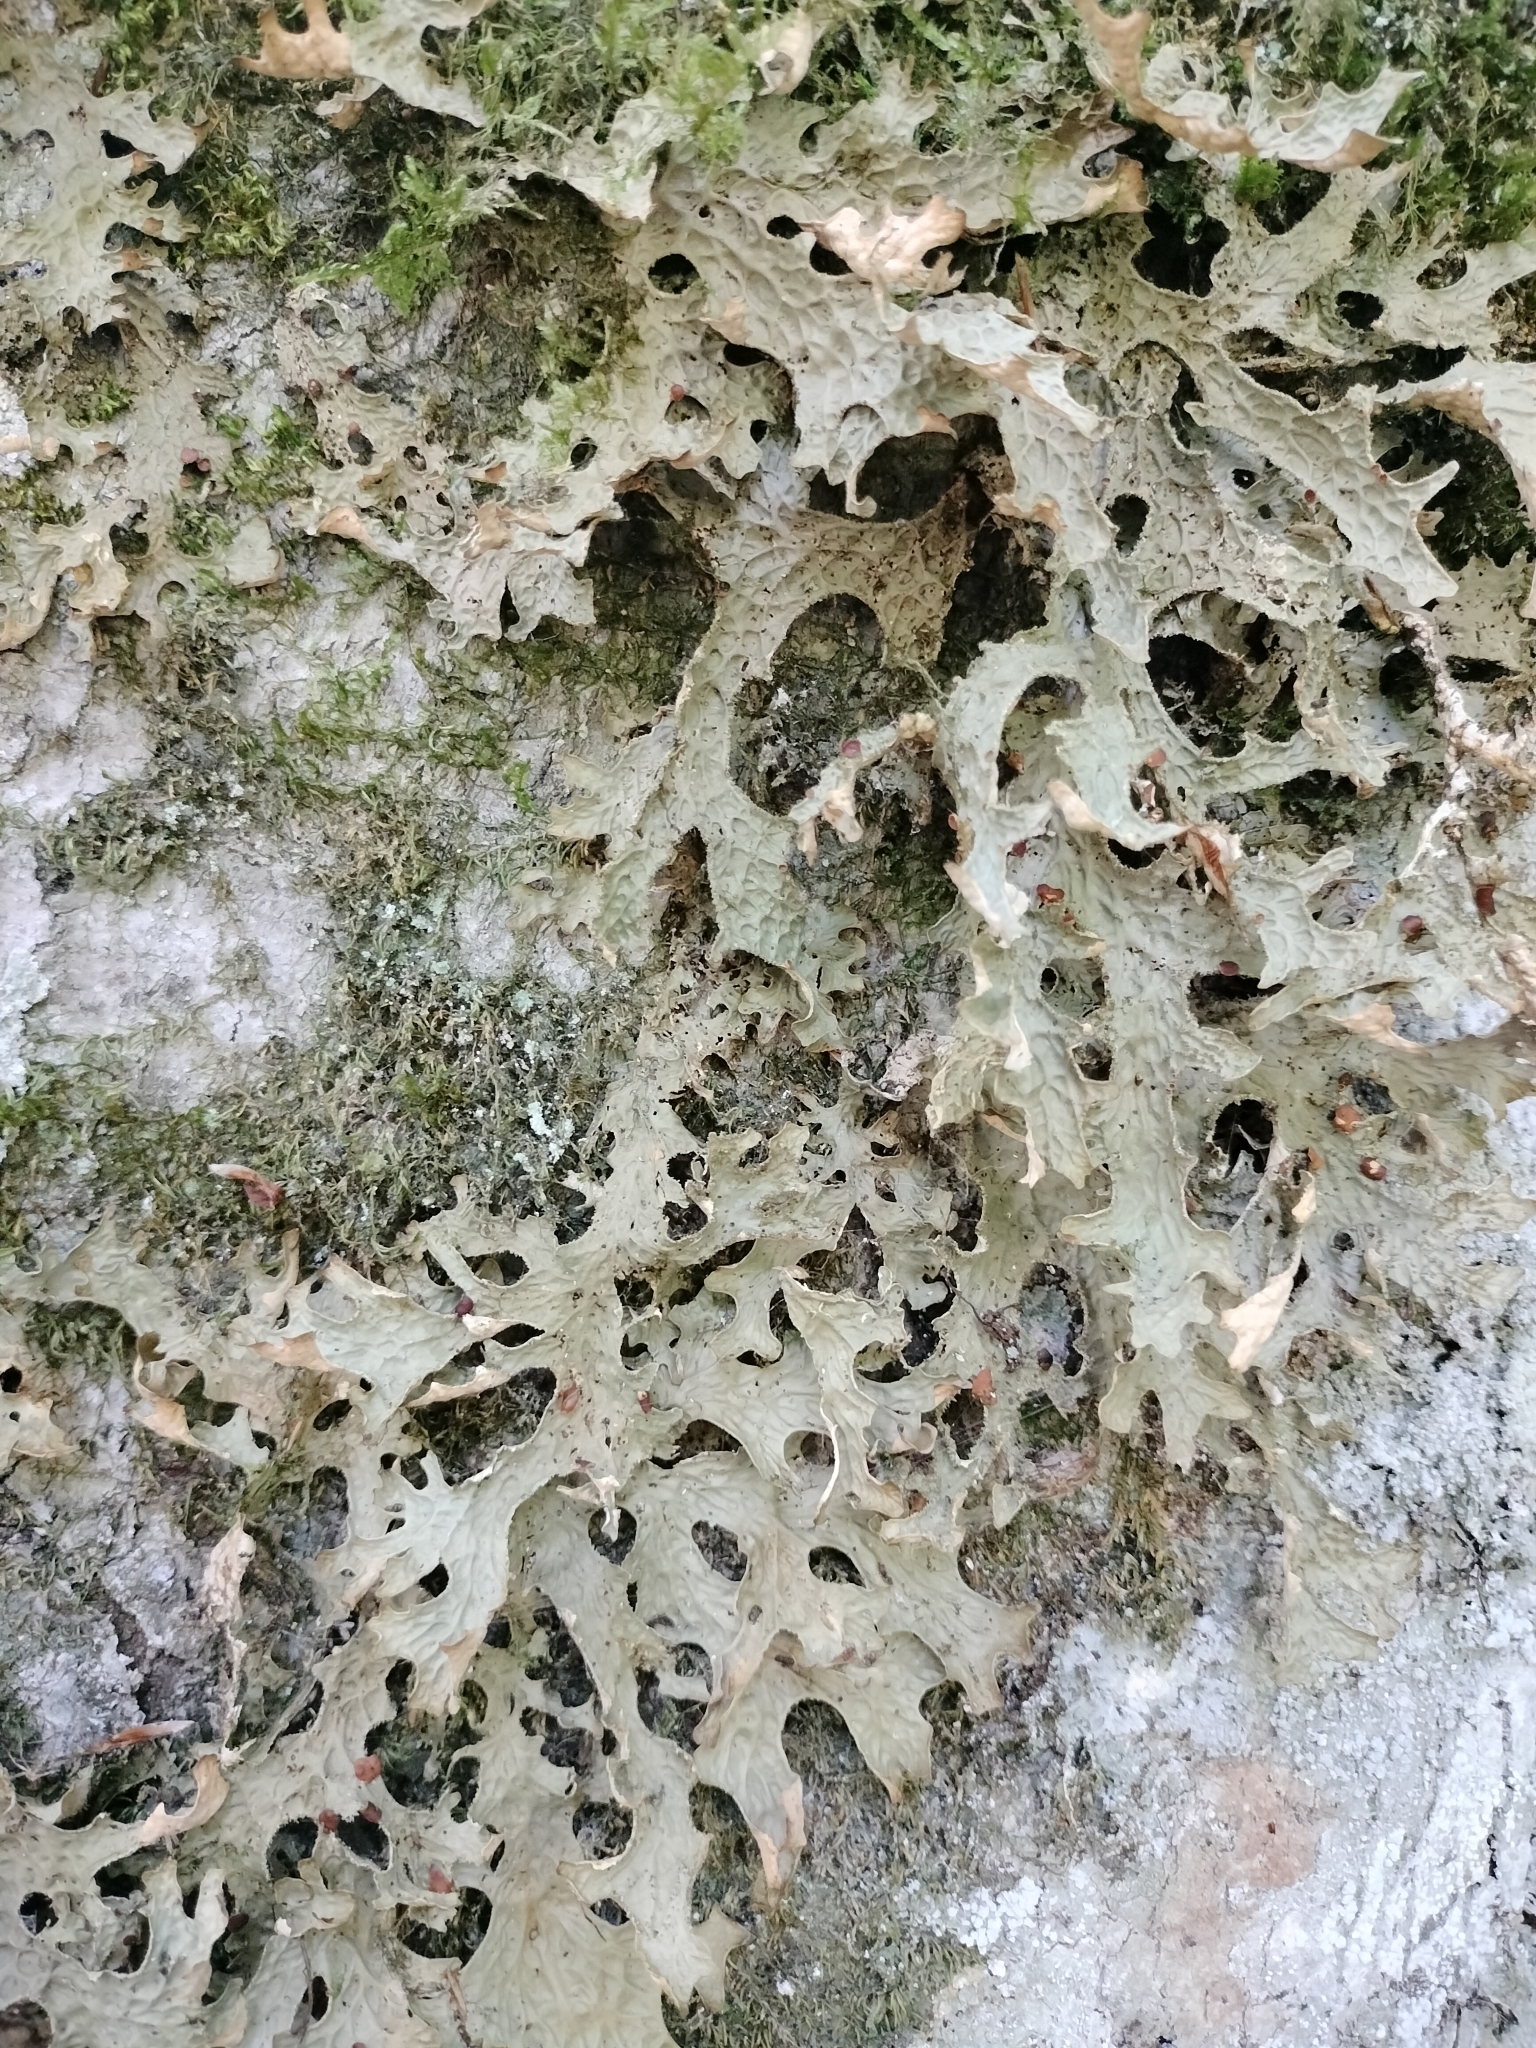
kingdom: Fungi
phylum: Ascomycota
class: Lecanoromycetes
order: Peltigerales
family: Lobariaceae
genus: Lobaria
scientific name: Lobaria pulmonaria
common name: Lungwort
